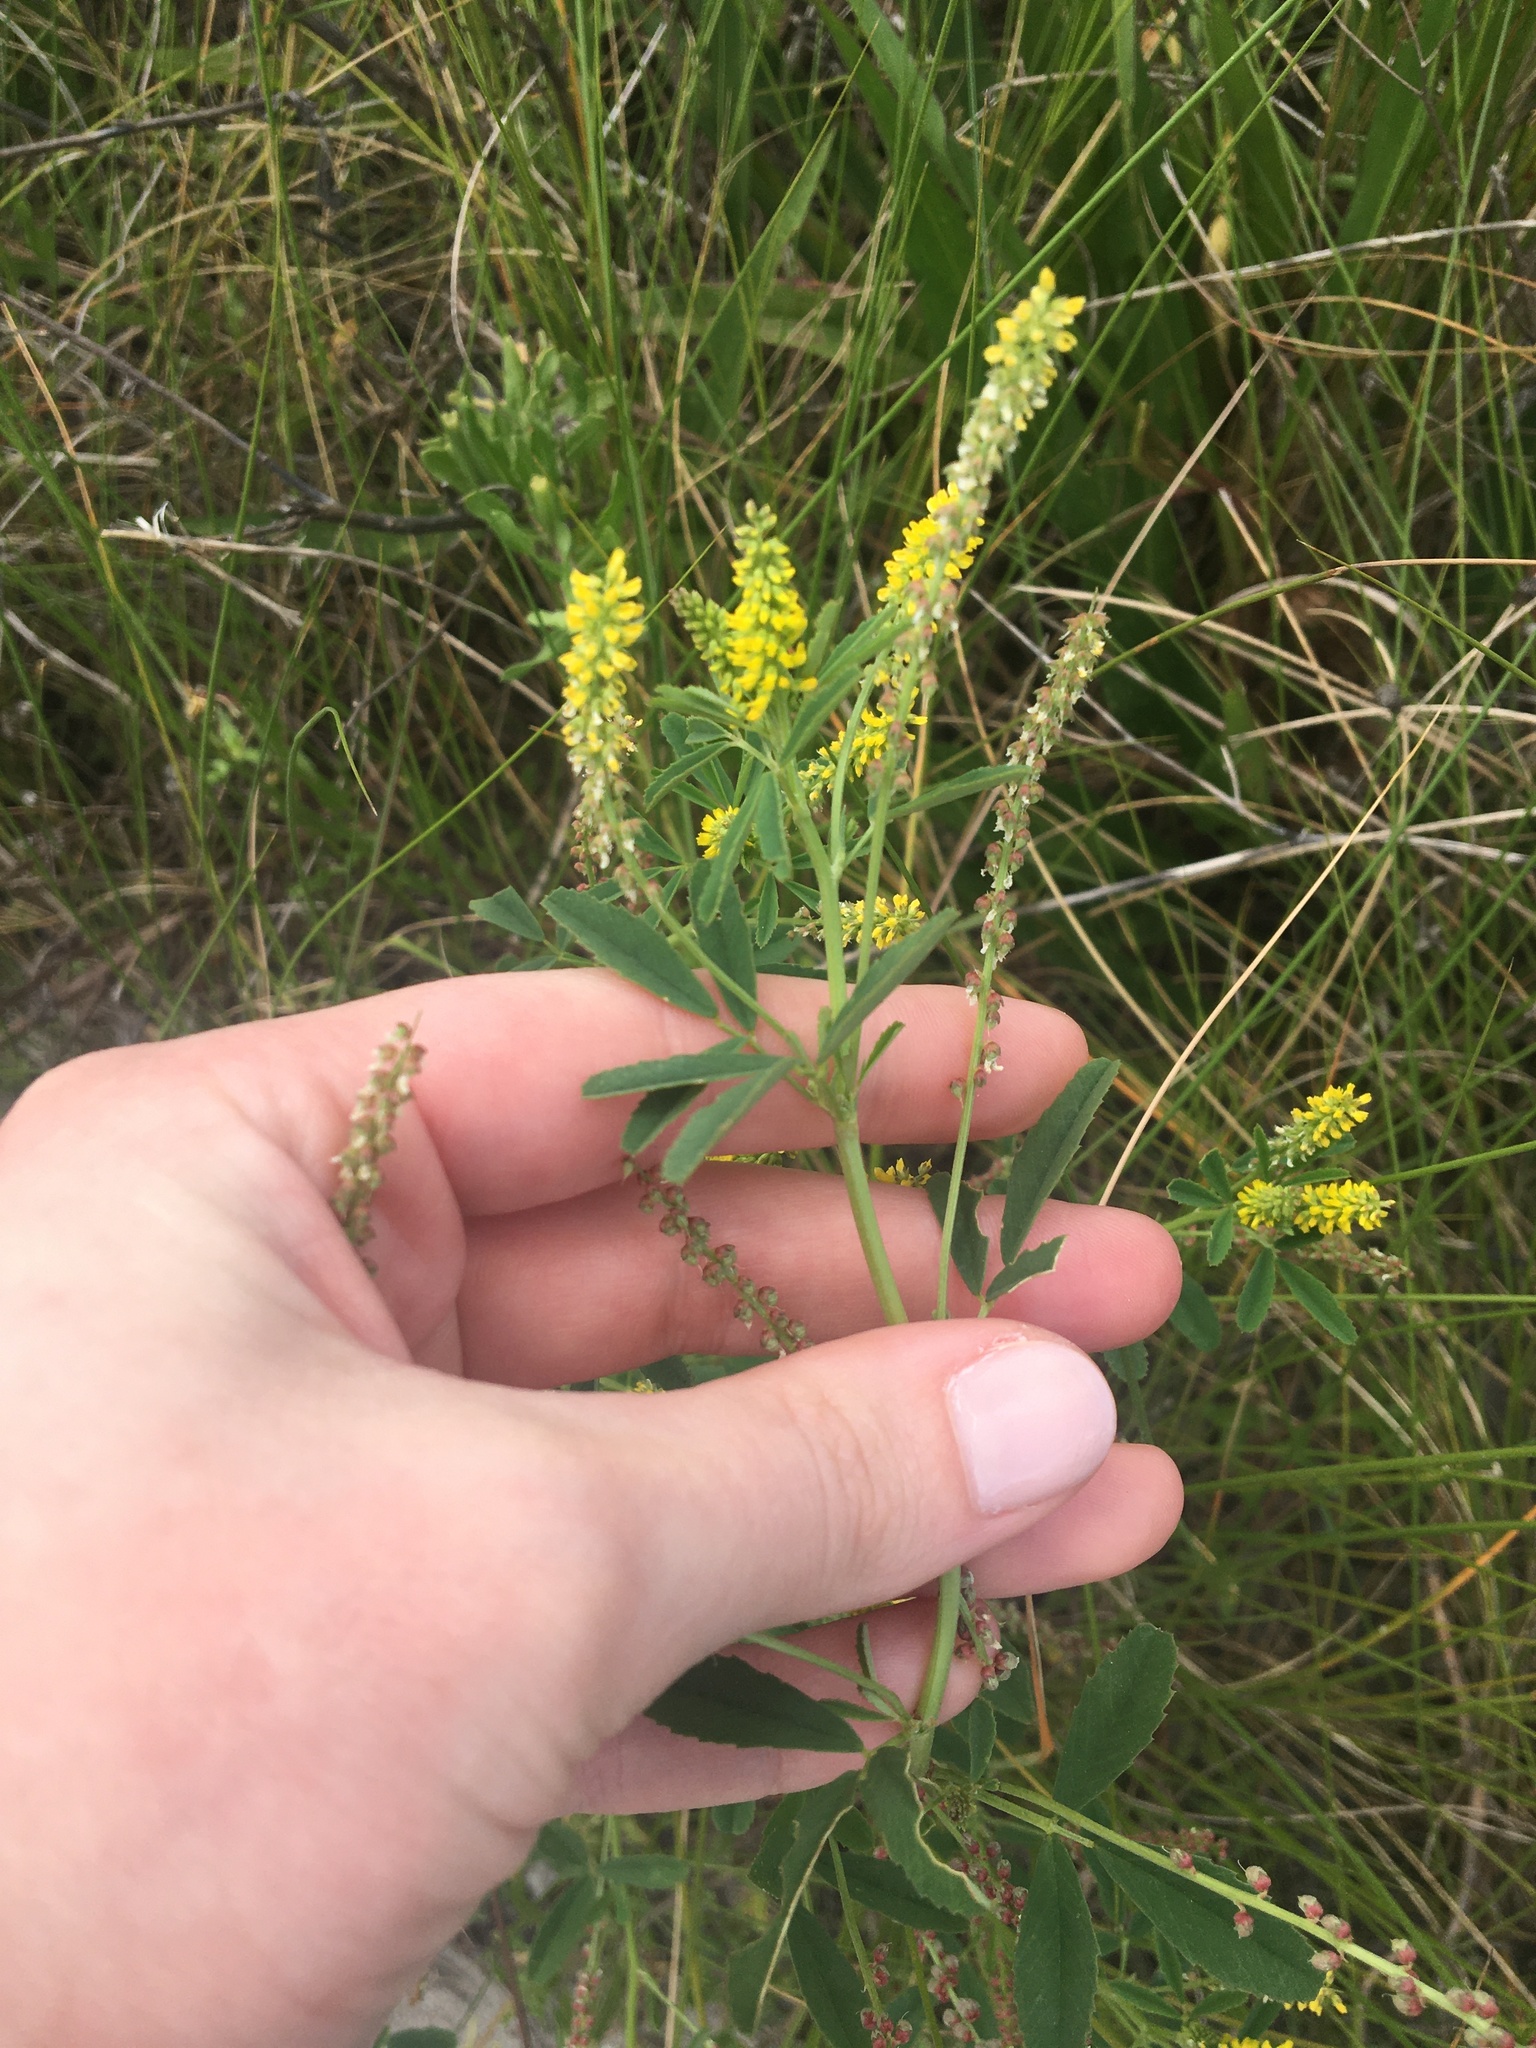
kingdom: Plantae
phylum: Tracheophyta
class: Magnoliopsida
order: Fabales
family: Fabaceae
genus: Melilotus
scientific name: Melilotus indicus
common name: Small melilot
